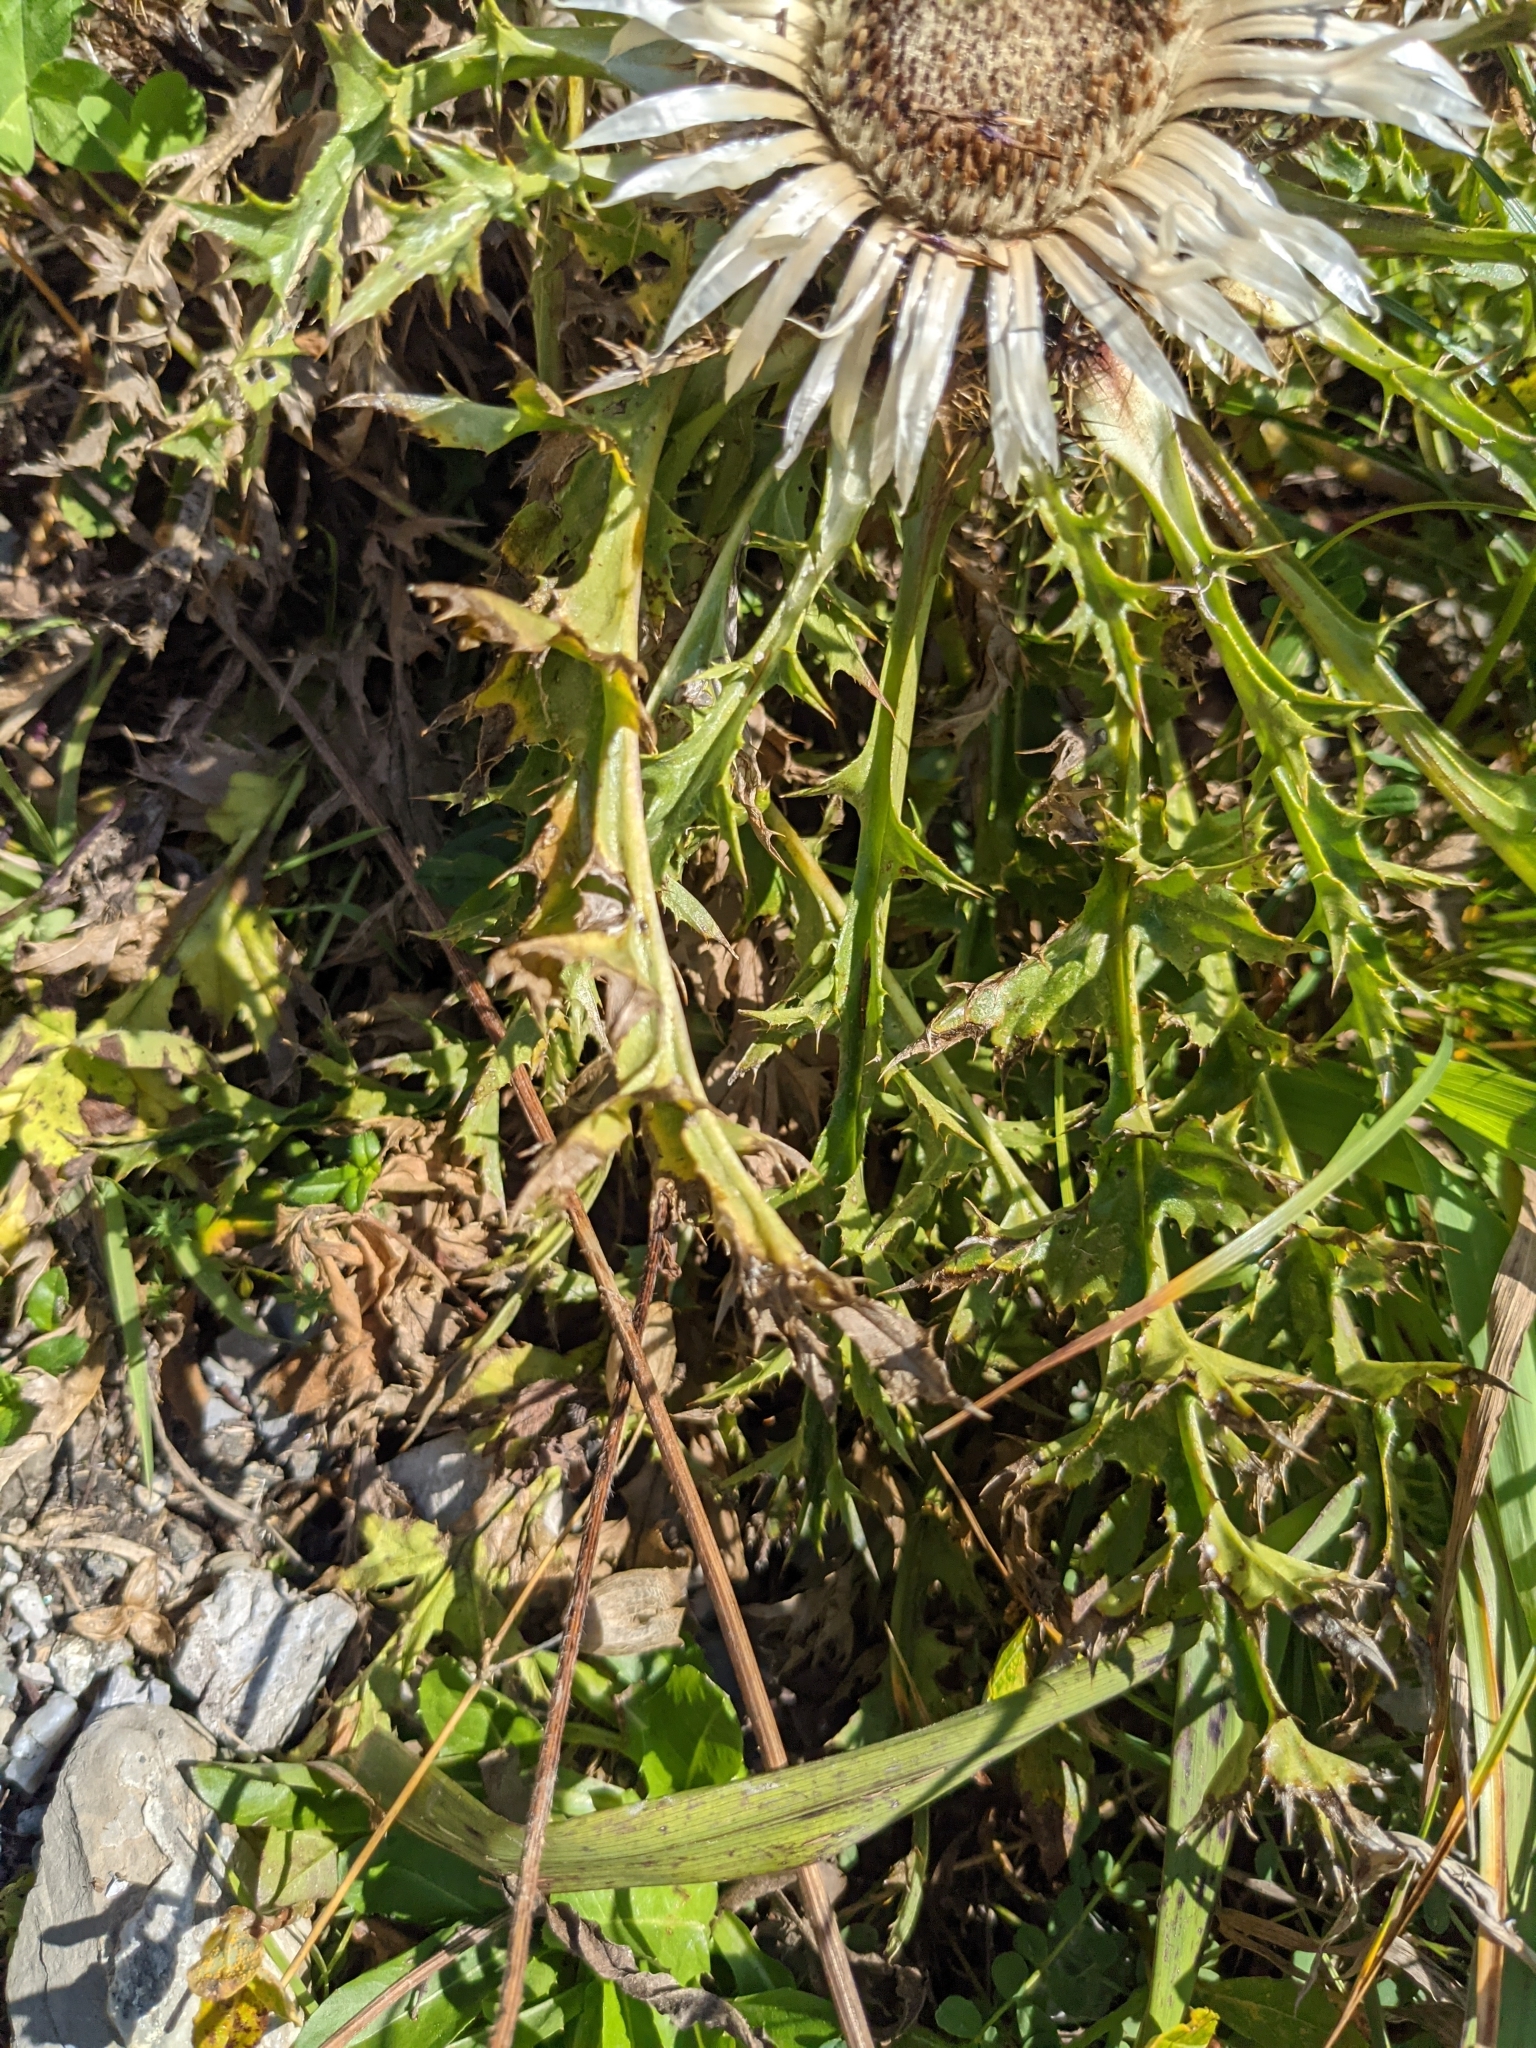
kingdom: Plantae
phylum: Tracheophyta
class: Magnoliopsida
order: Asterales
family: Asteraceae
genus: Carlina
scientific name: Carlina acaulis
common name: Stemless carline thistle
